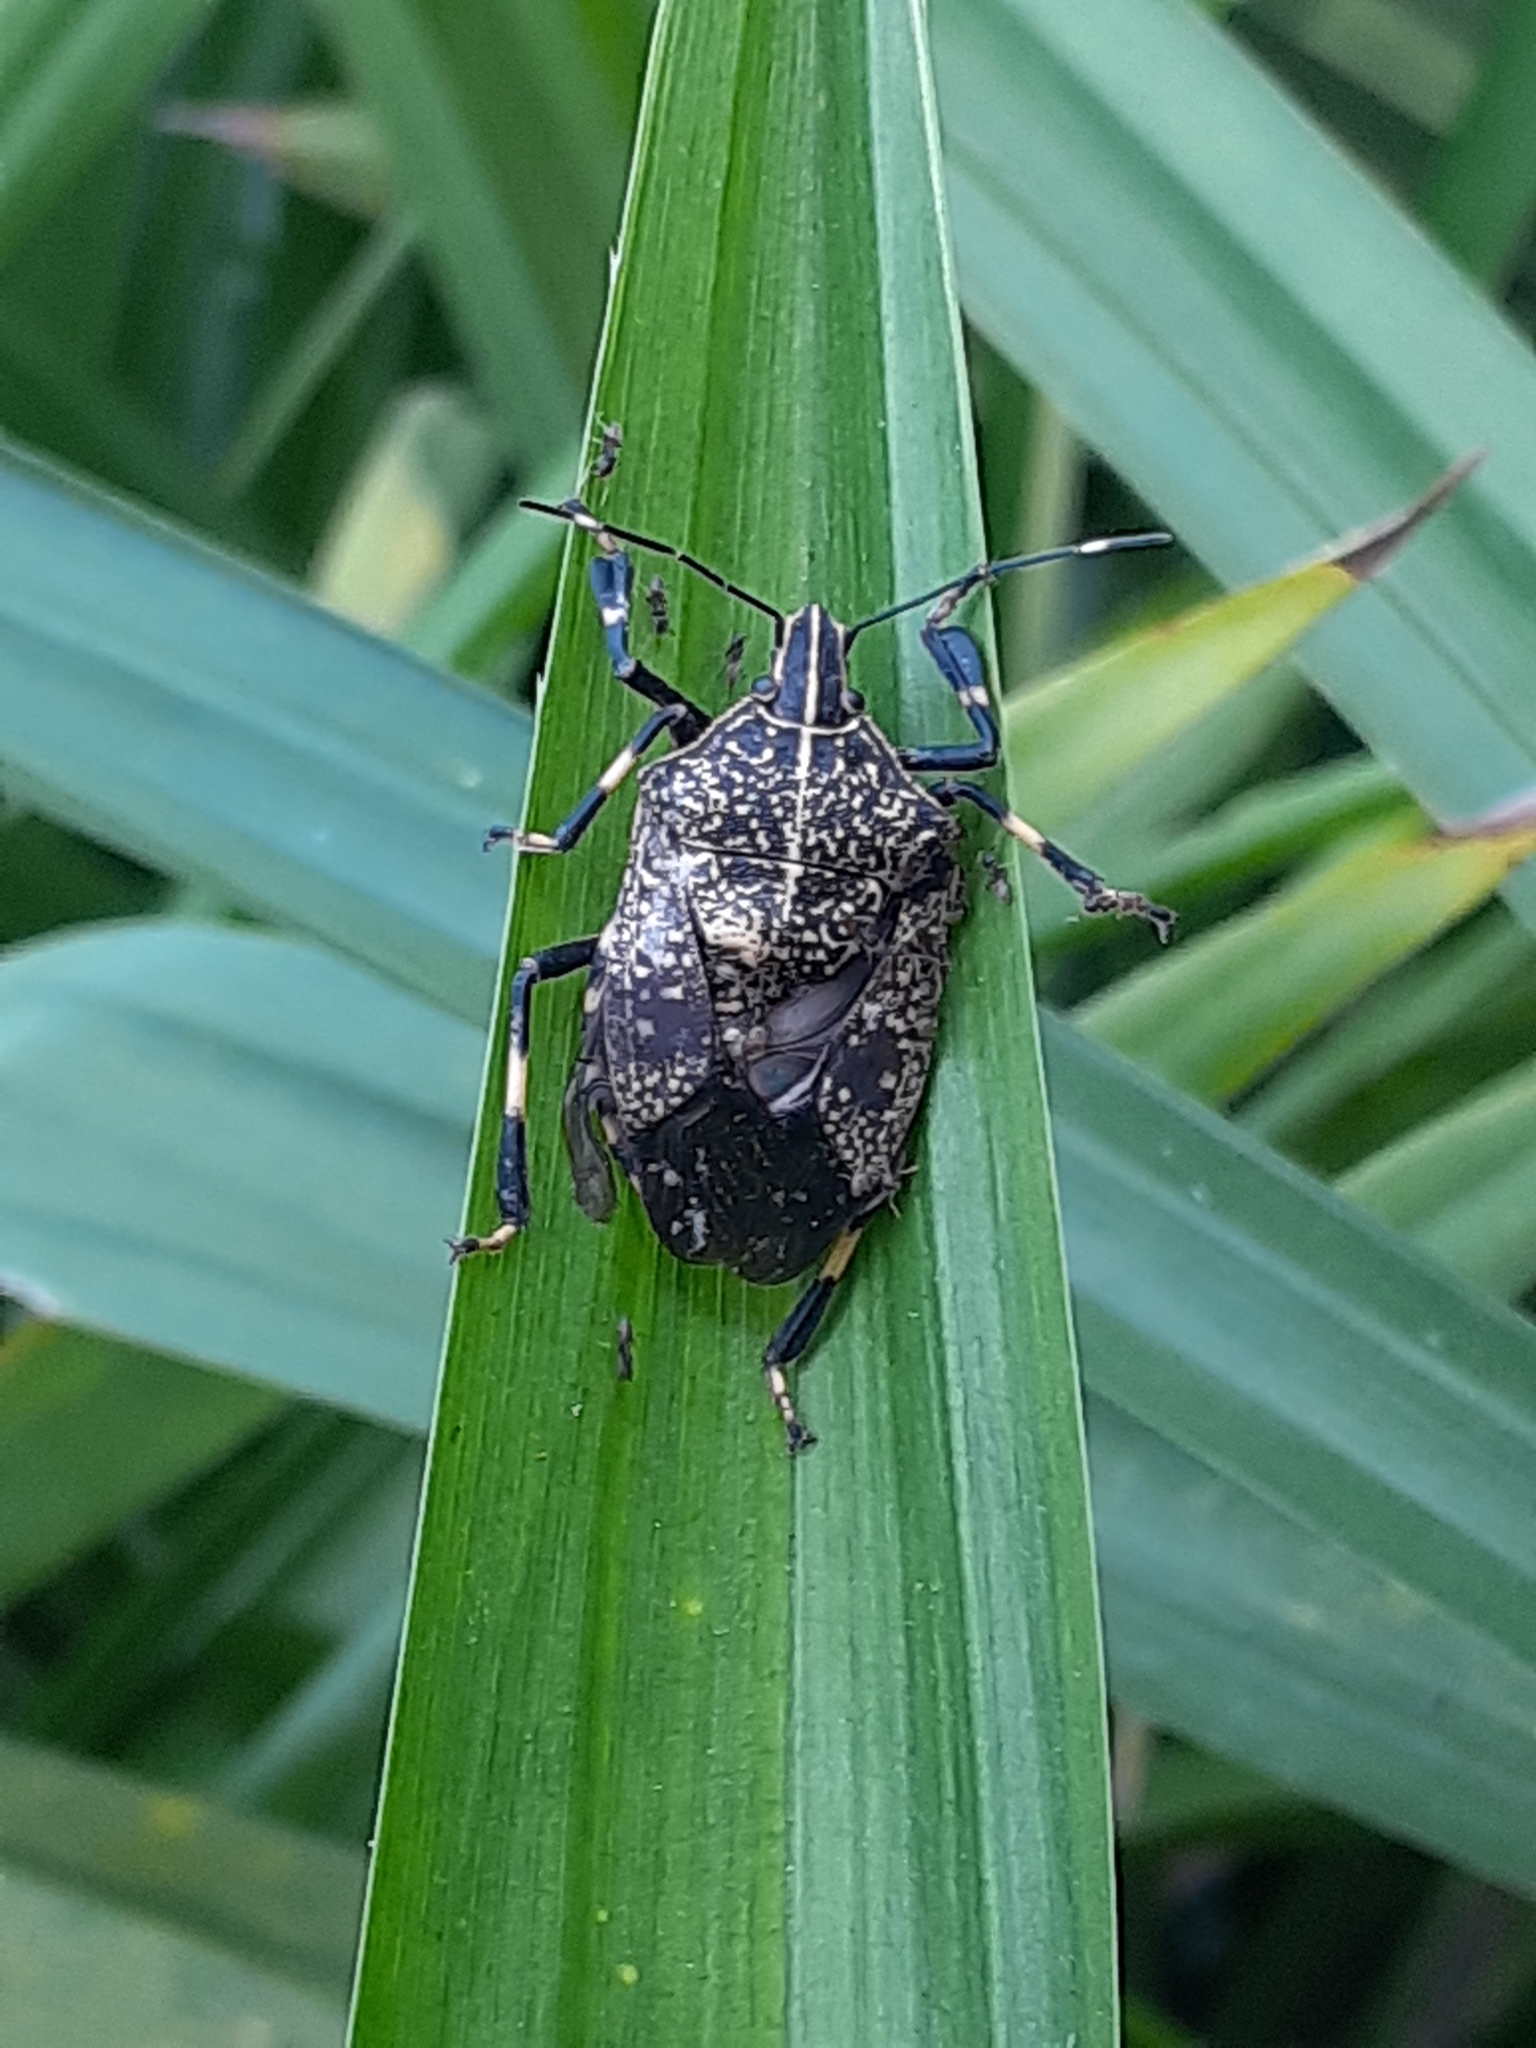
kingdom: Animalia
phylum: Arthropoda
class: Insecta
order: Hemiptera
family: Pentatomidae
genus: Erthesina
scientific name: Erthesina fullo
